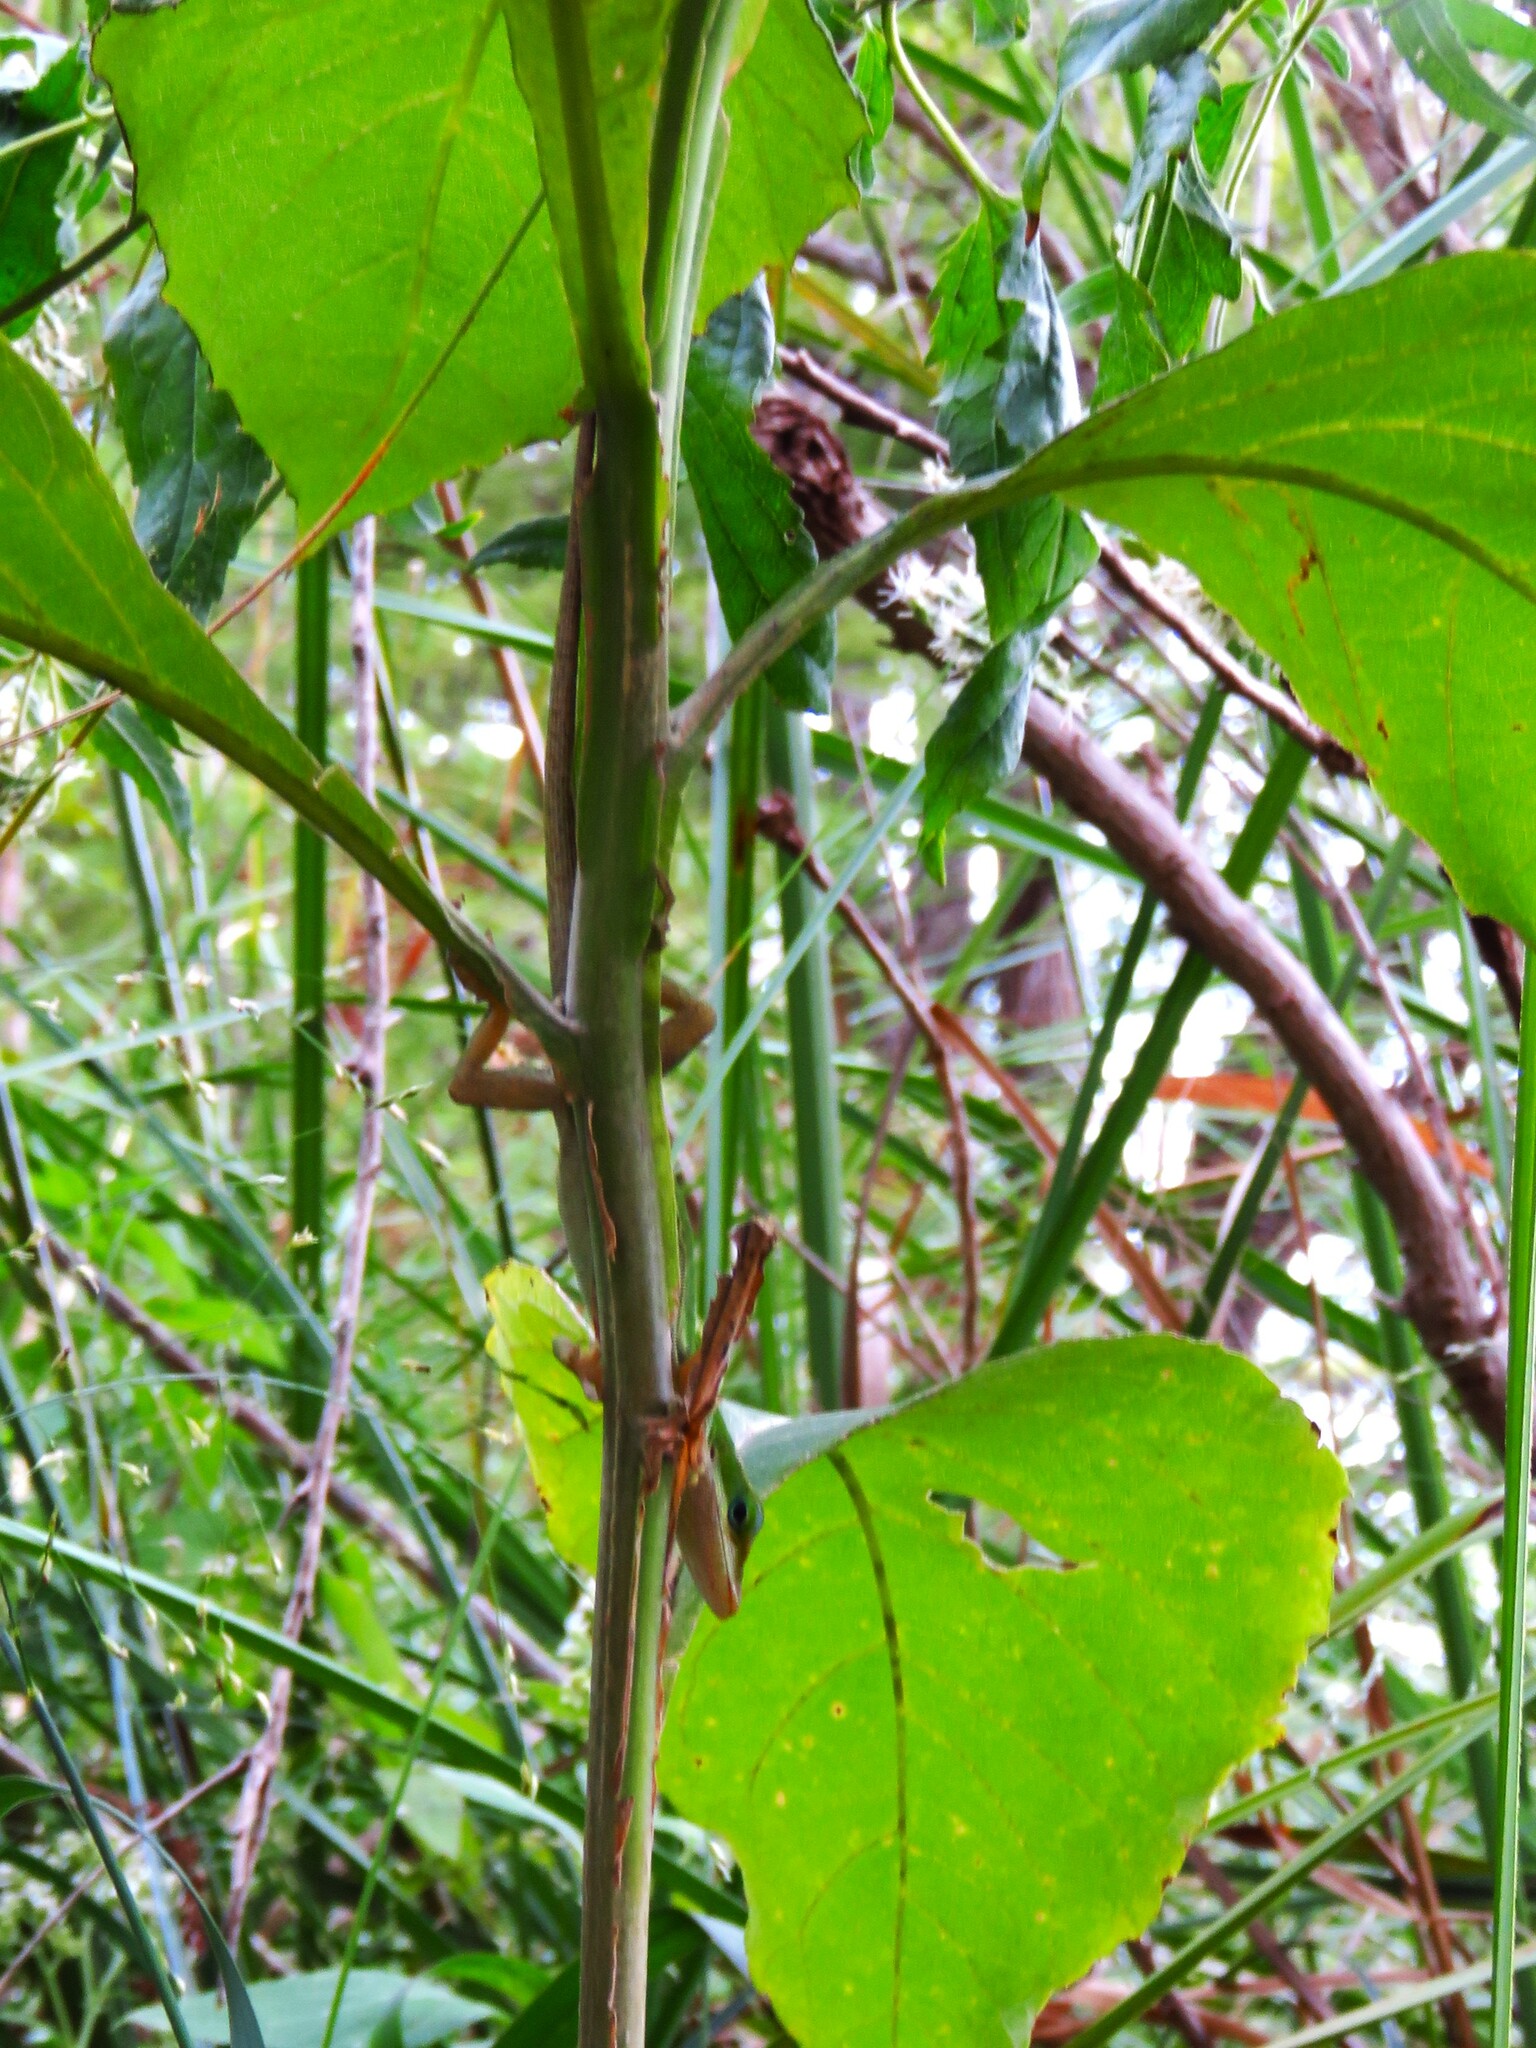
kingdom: Animalia
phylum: Chordata
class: Squamata
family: Dactyloidae
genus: Anolis
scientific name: Anolis carolinensis
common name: Green anole
